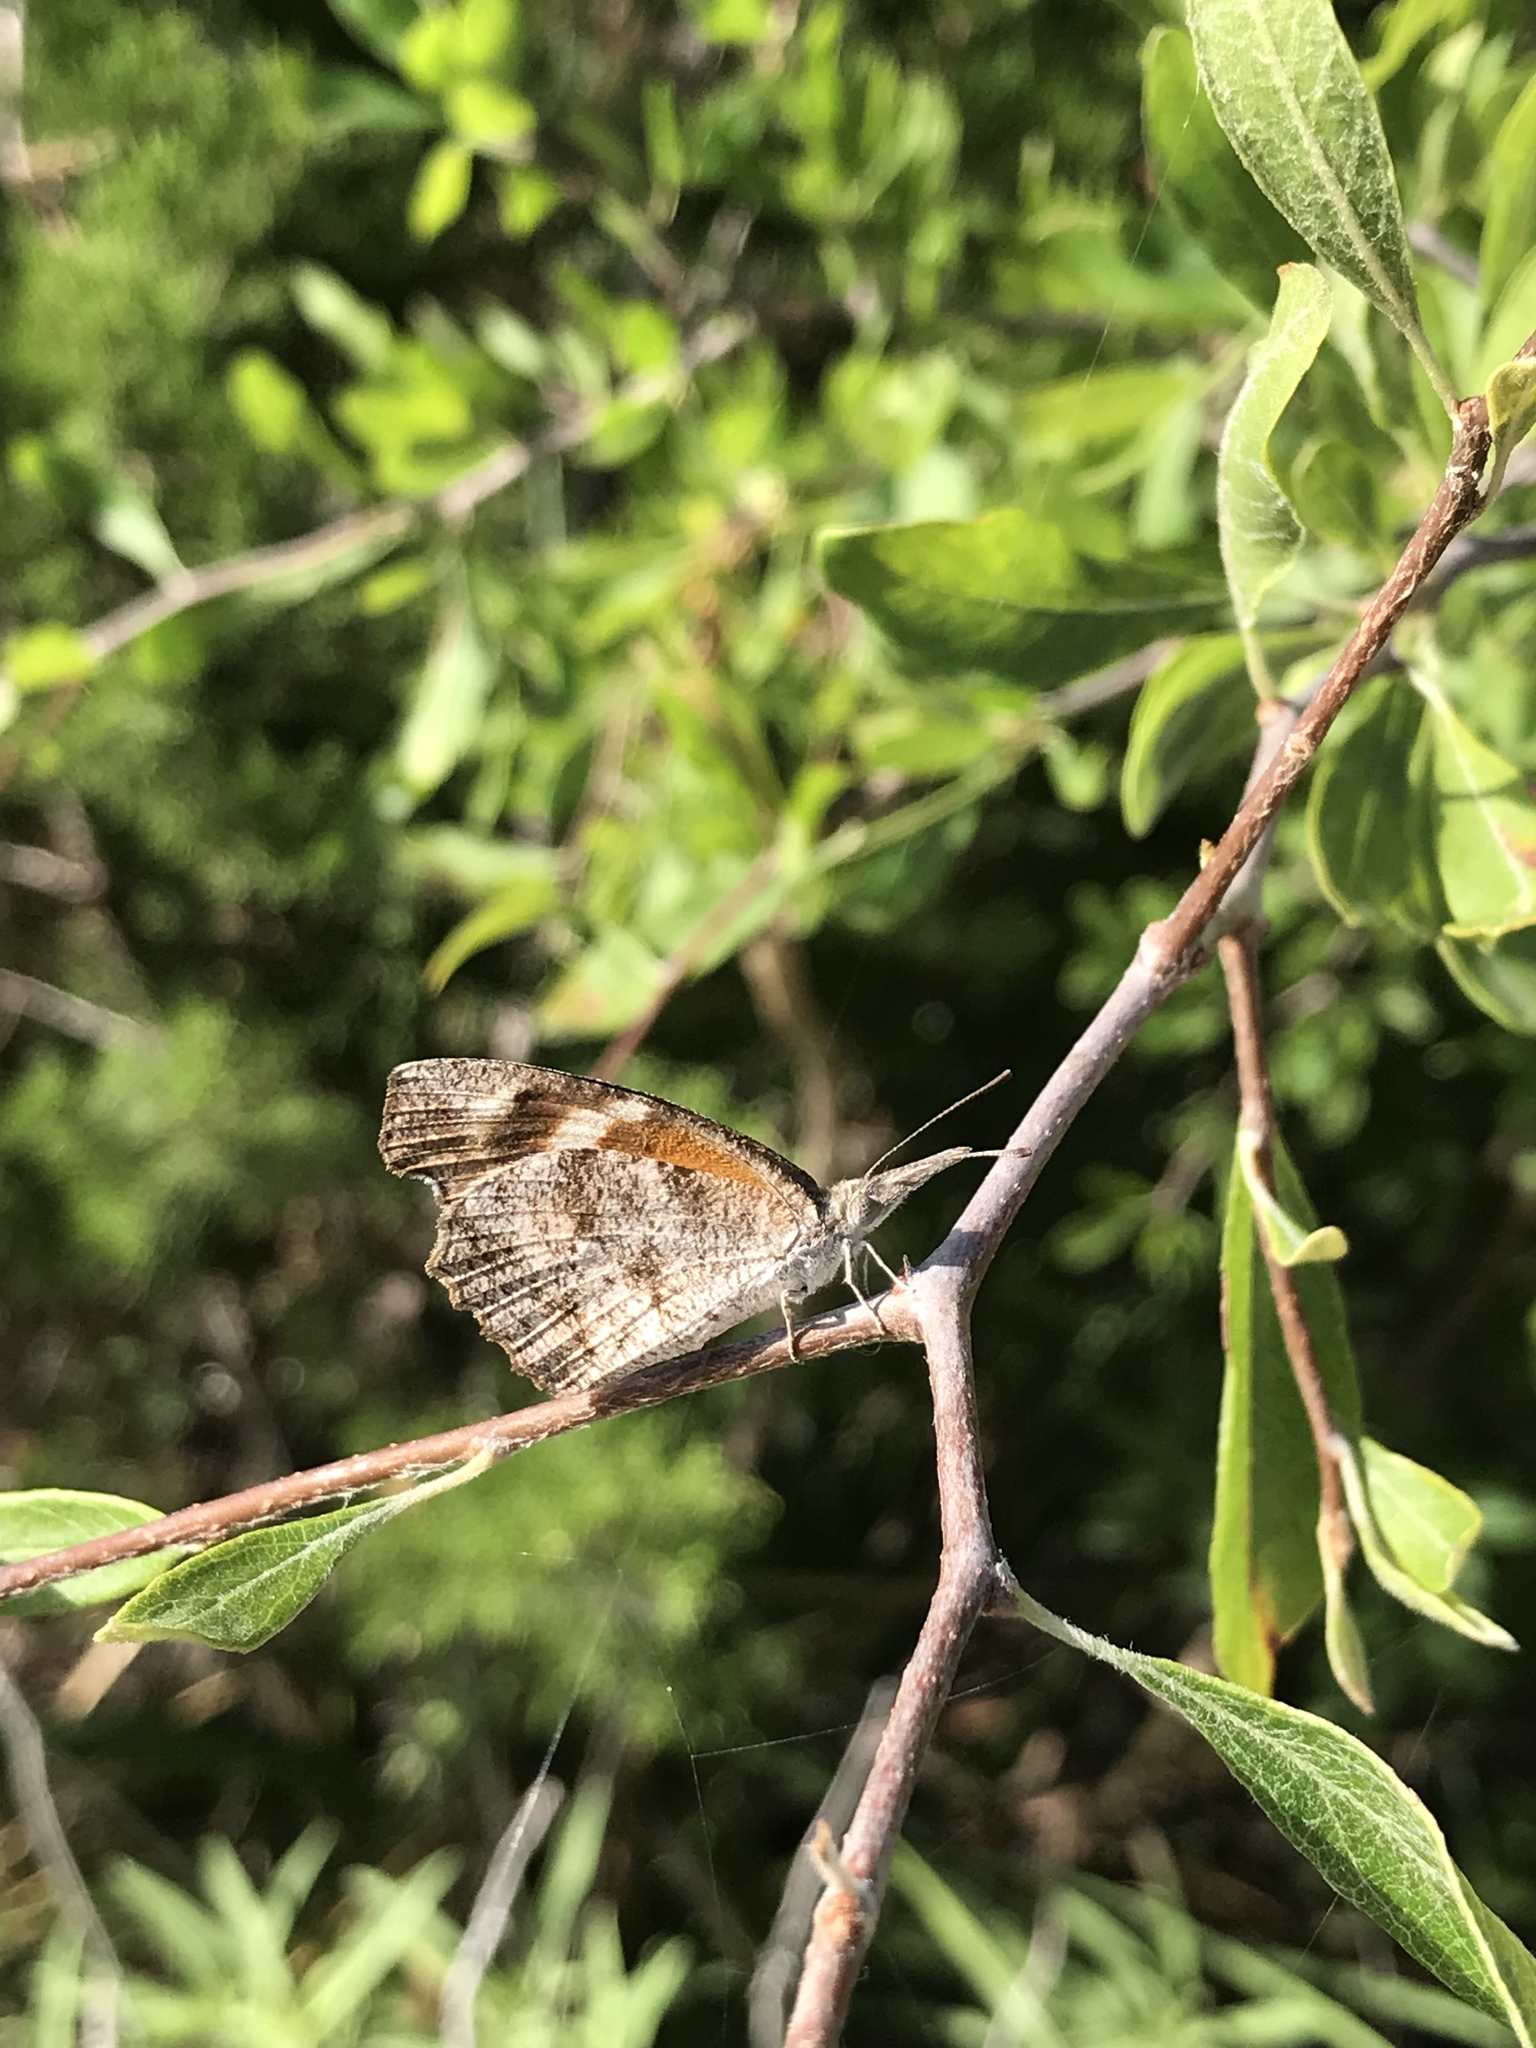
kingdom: Animalia
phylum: Arthropoda
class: Insecta
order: Lepidoptera
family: Nymphalidae
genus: Libytheana
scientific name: Libytheana carinenta
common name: American snout
